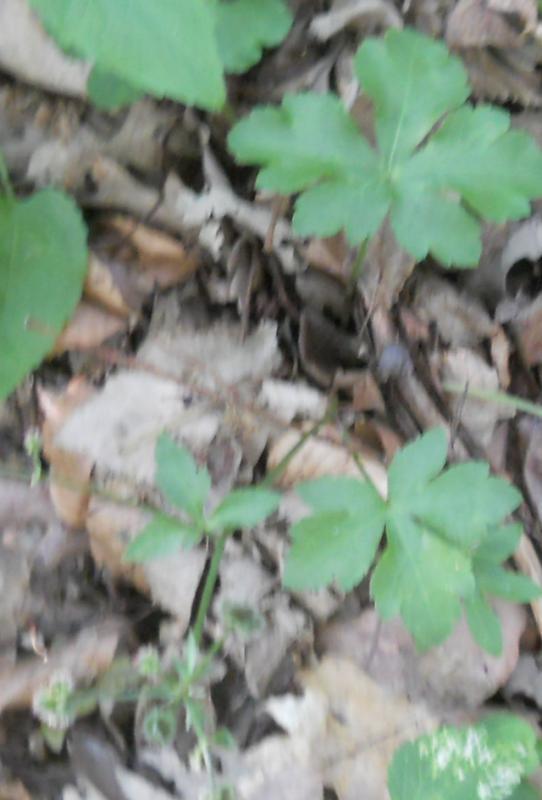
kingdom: Plantae
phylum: Tracheophyta
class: Magnoliopsida
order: Apiales
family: Apiaceae
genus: Sanicula
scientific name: Sanicula europaea
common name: Sanicle
